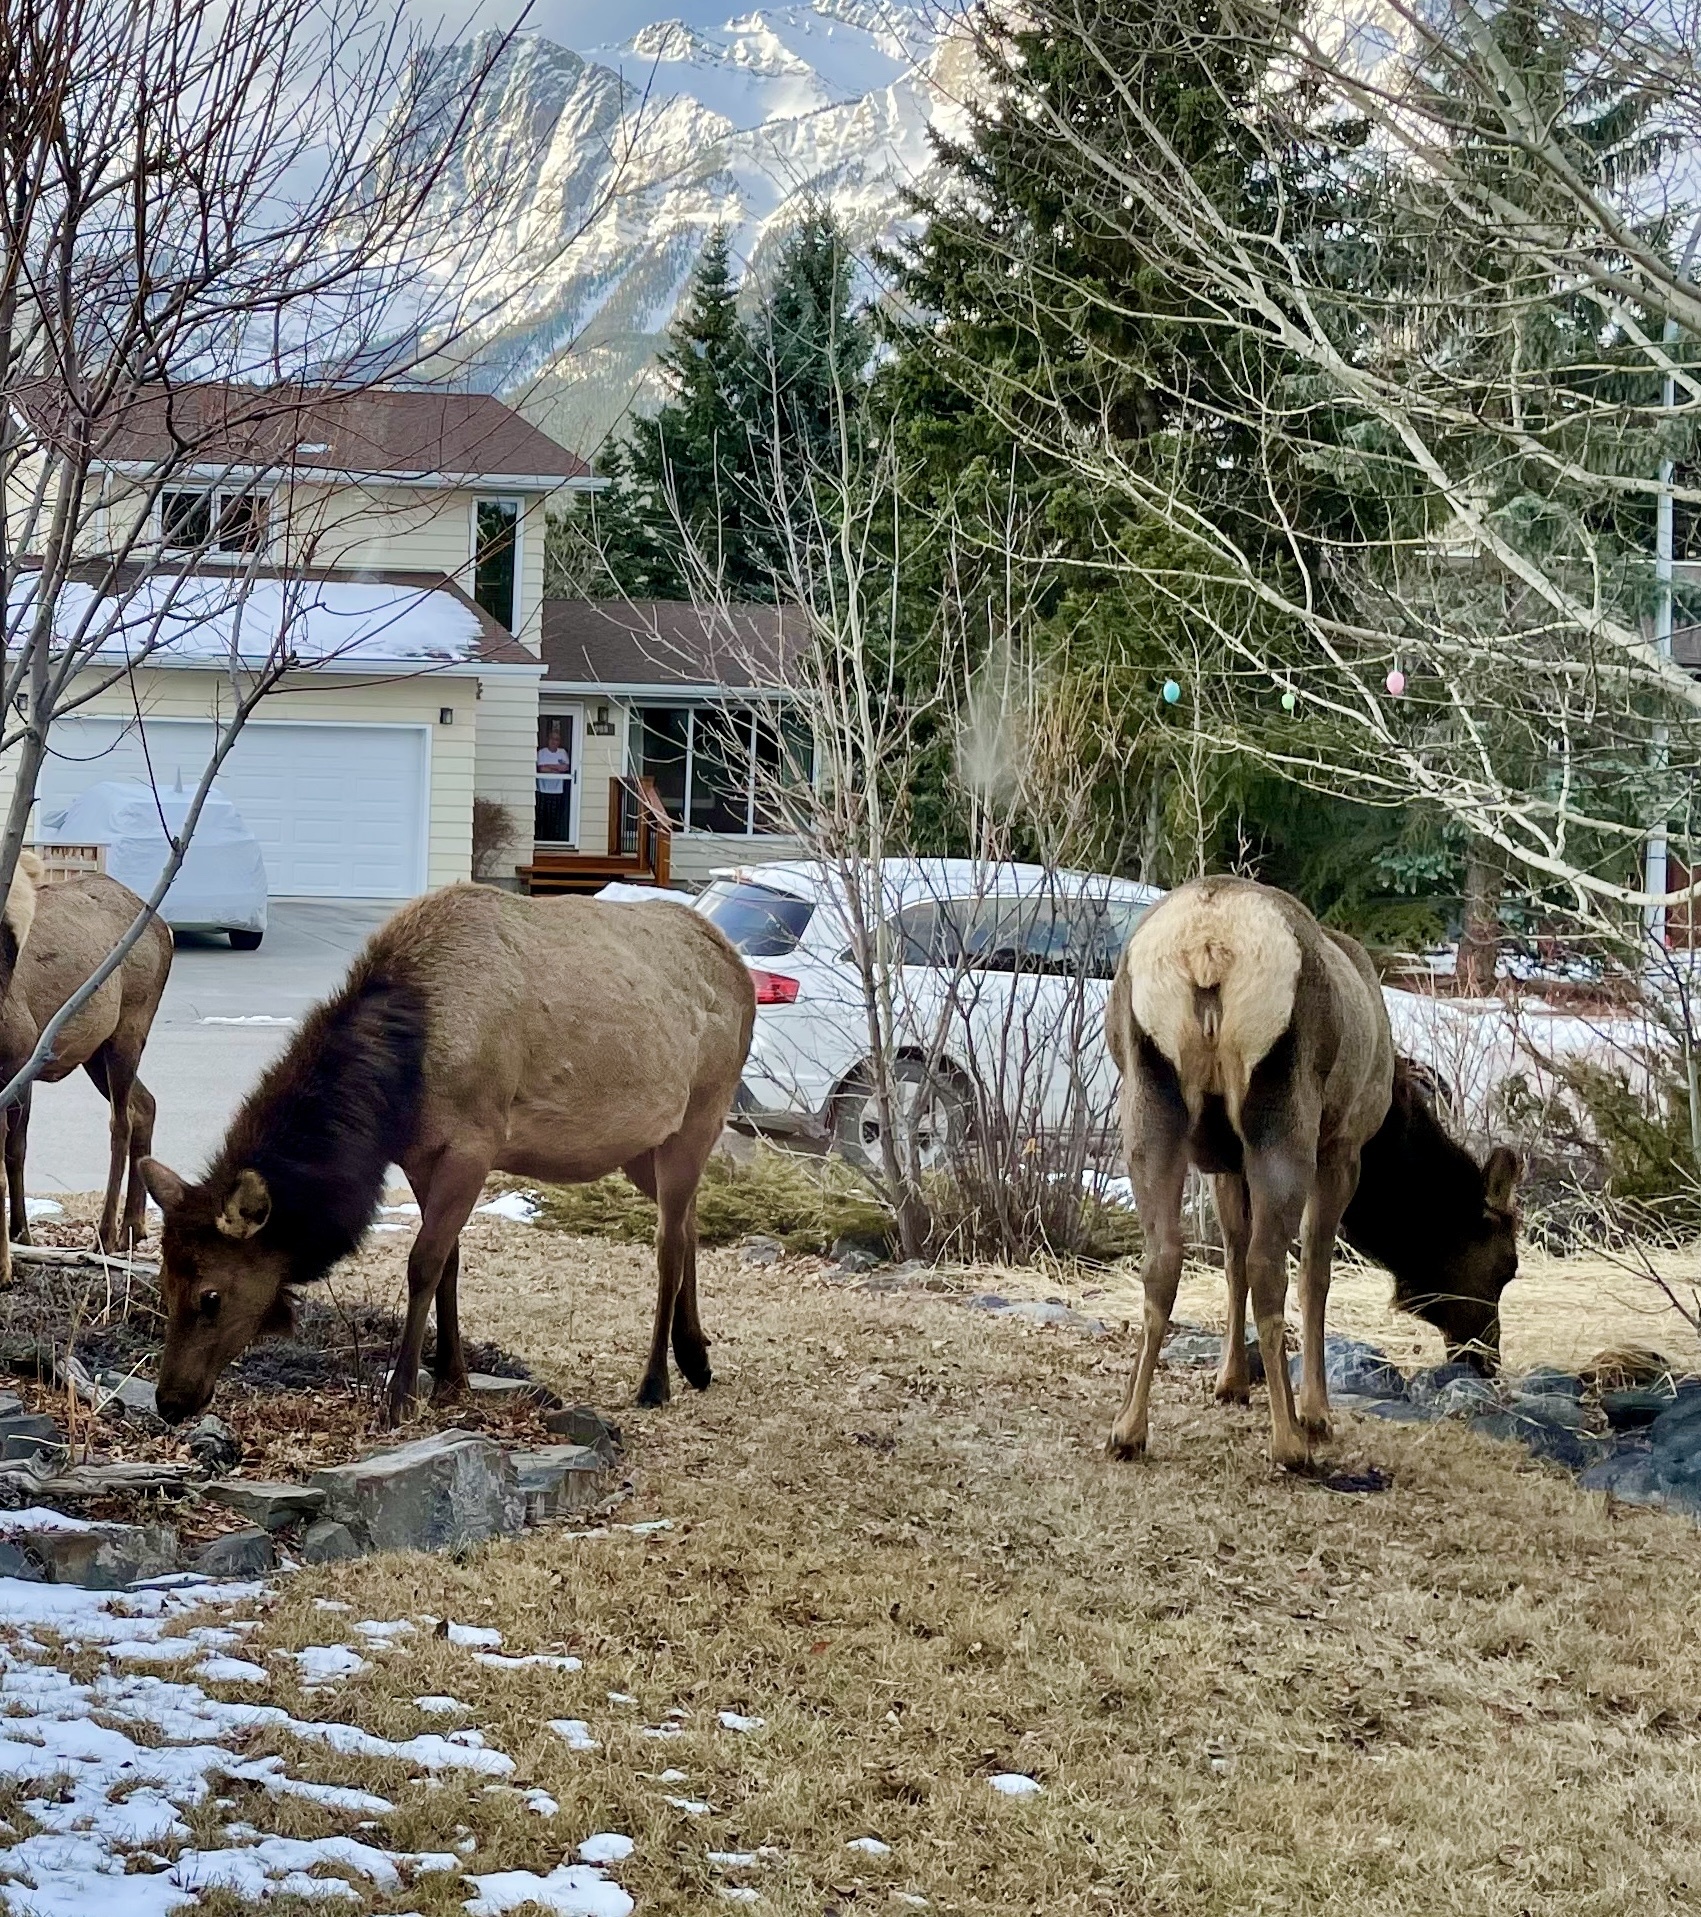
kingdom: Animalia
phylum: Chordata
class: Mammalia
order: Artiodactyla
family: Cervidae
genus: Cervus
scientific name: Cervus elaphus
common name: Red deer
